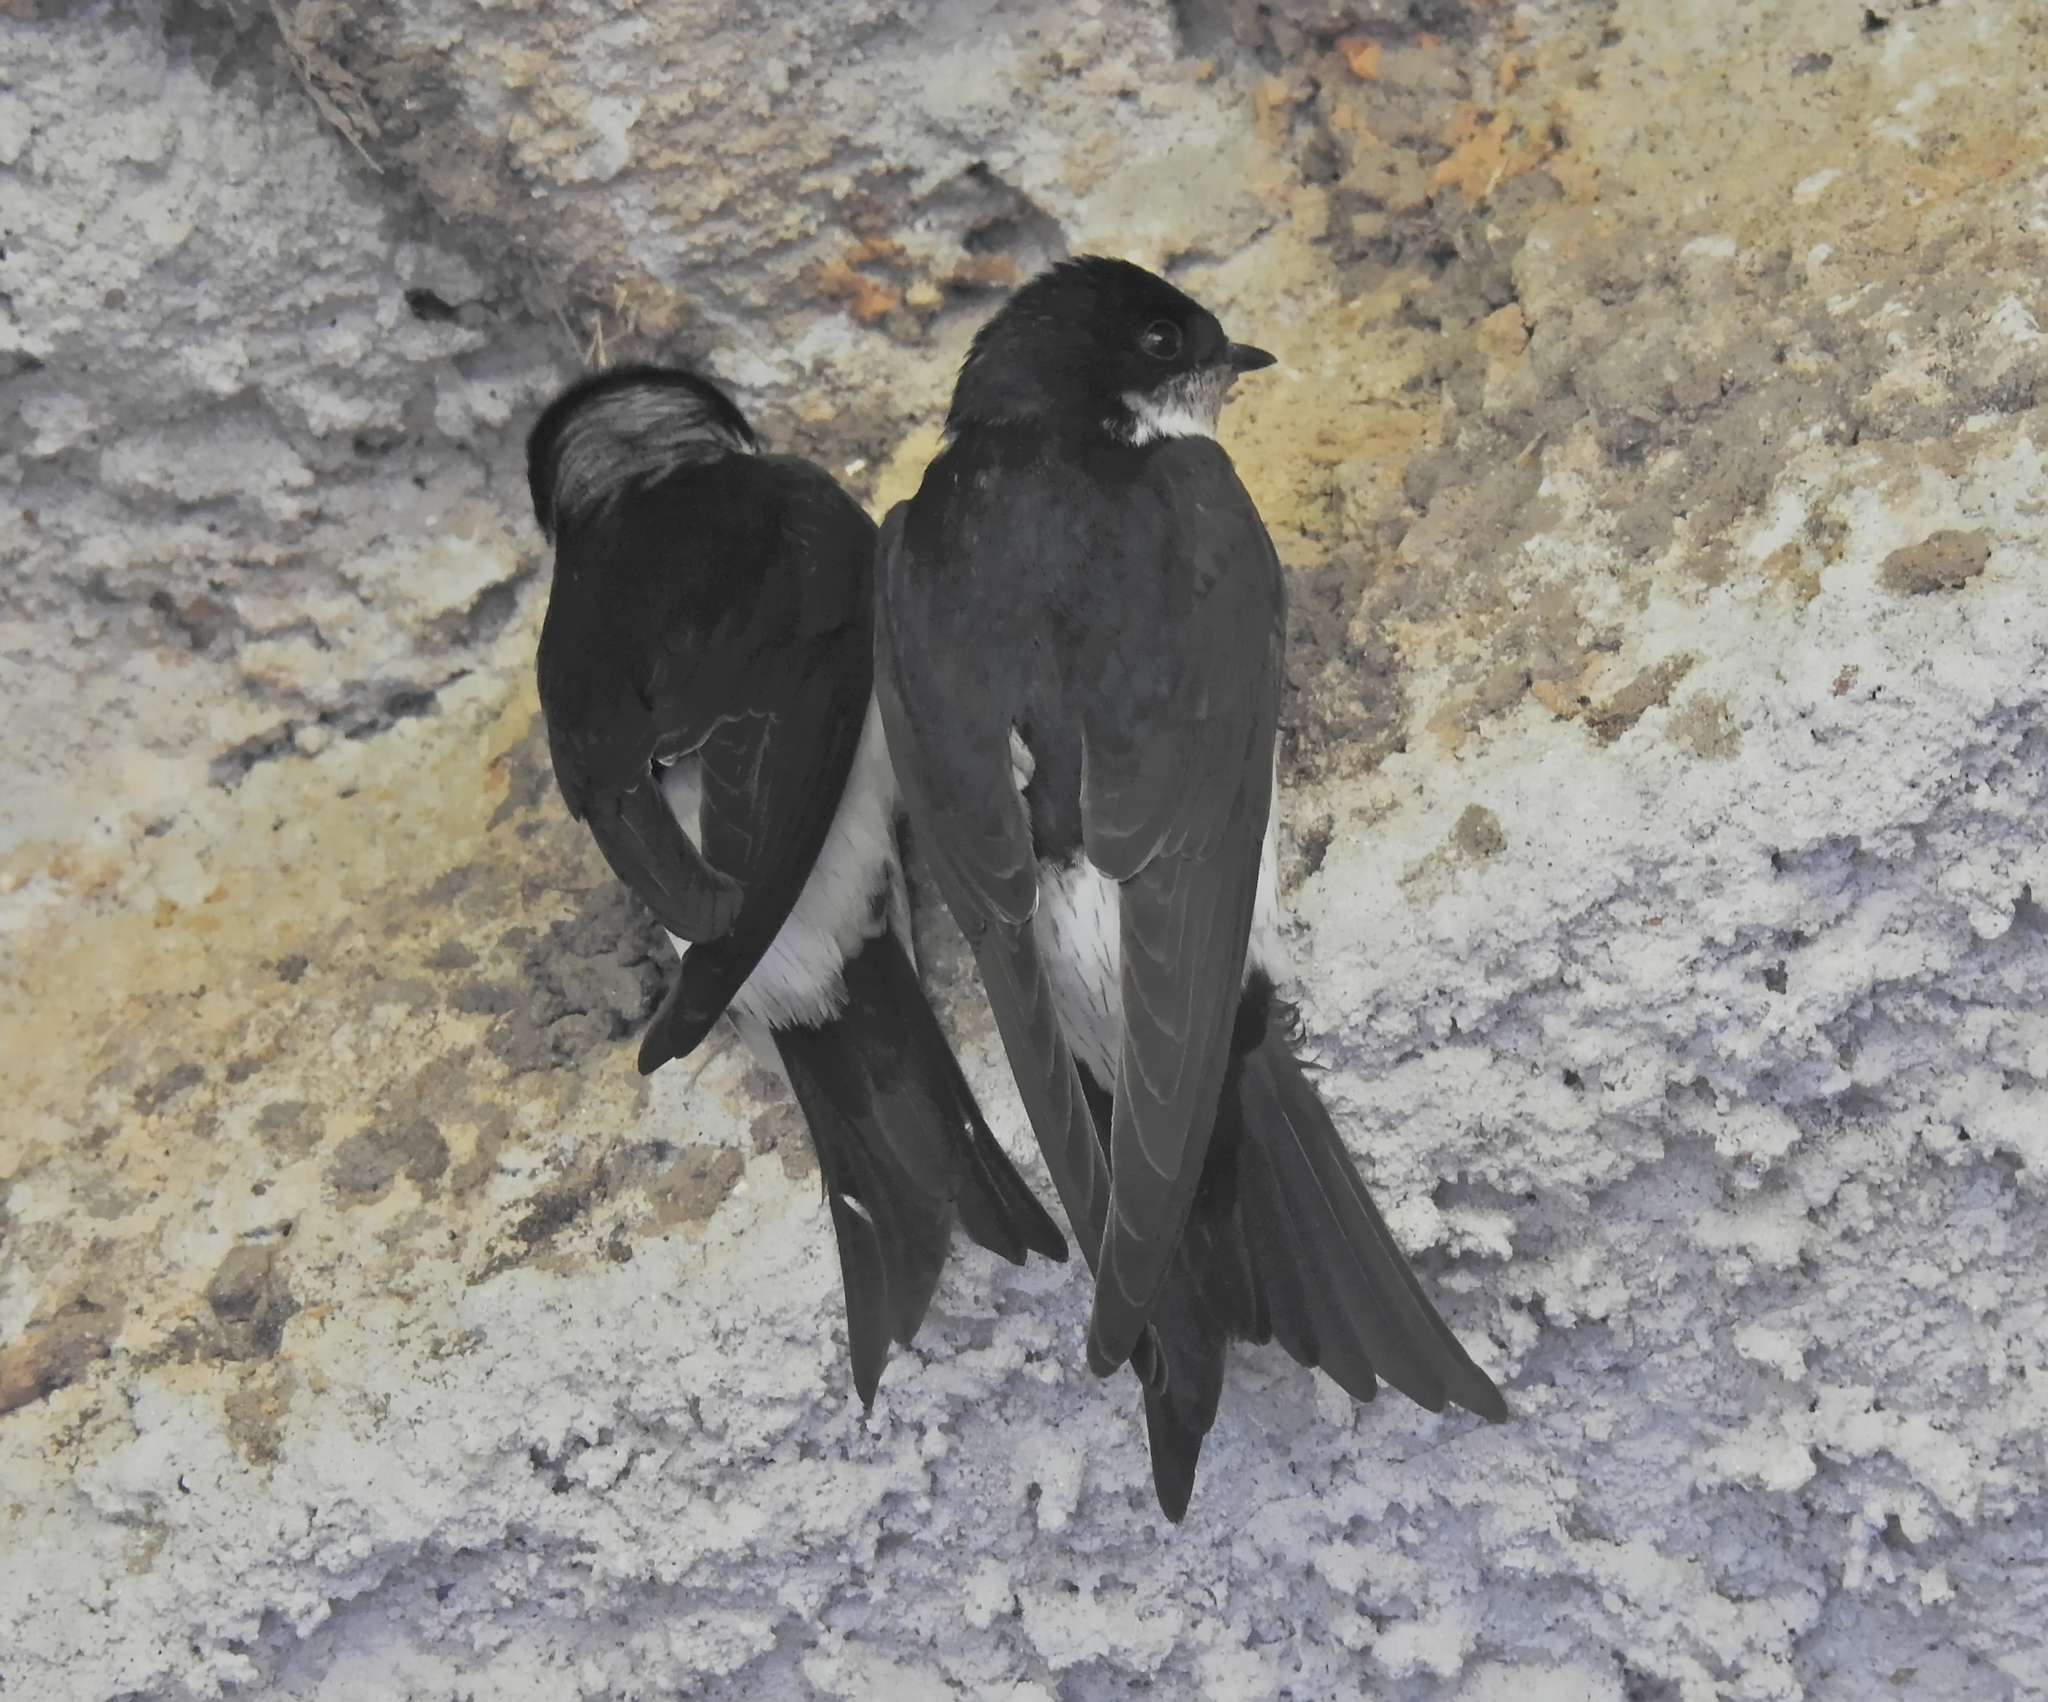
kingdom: Animalia
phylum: Chordata
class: Aves
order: Passeriformes
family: Hirundinidae
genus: Delichon
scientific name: Delichon urbicum
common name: Common house martin
